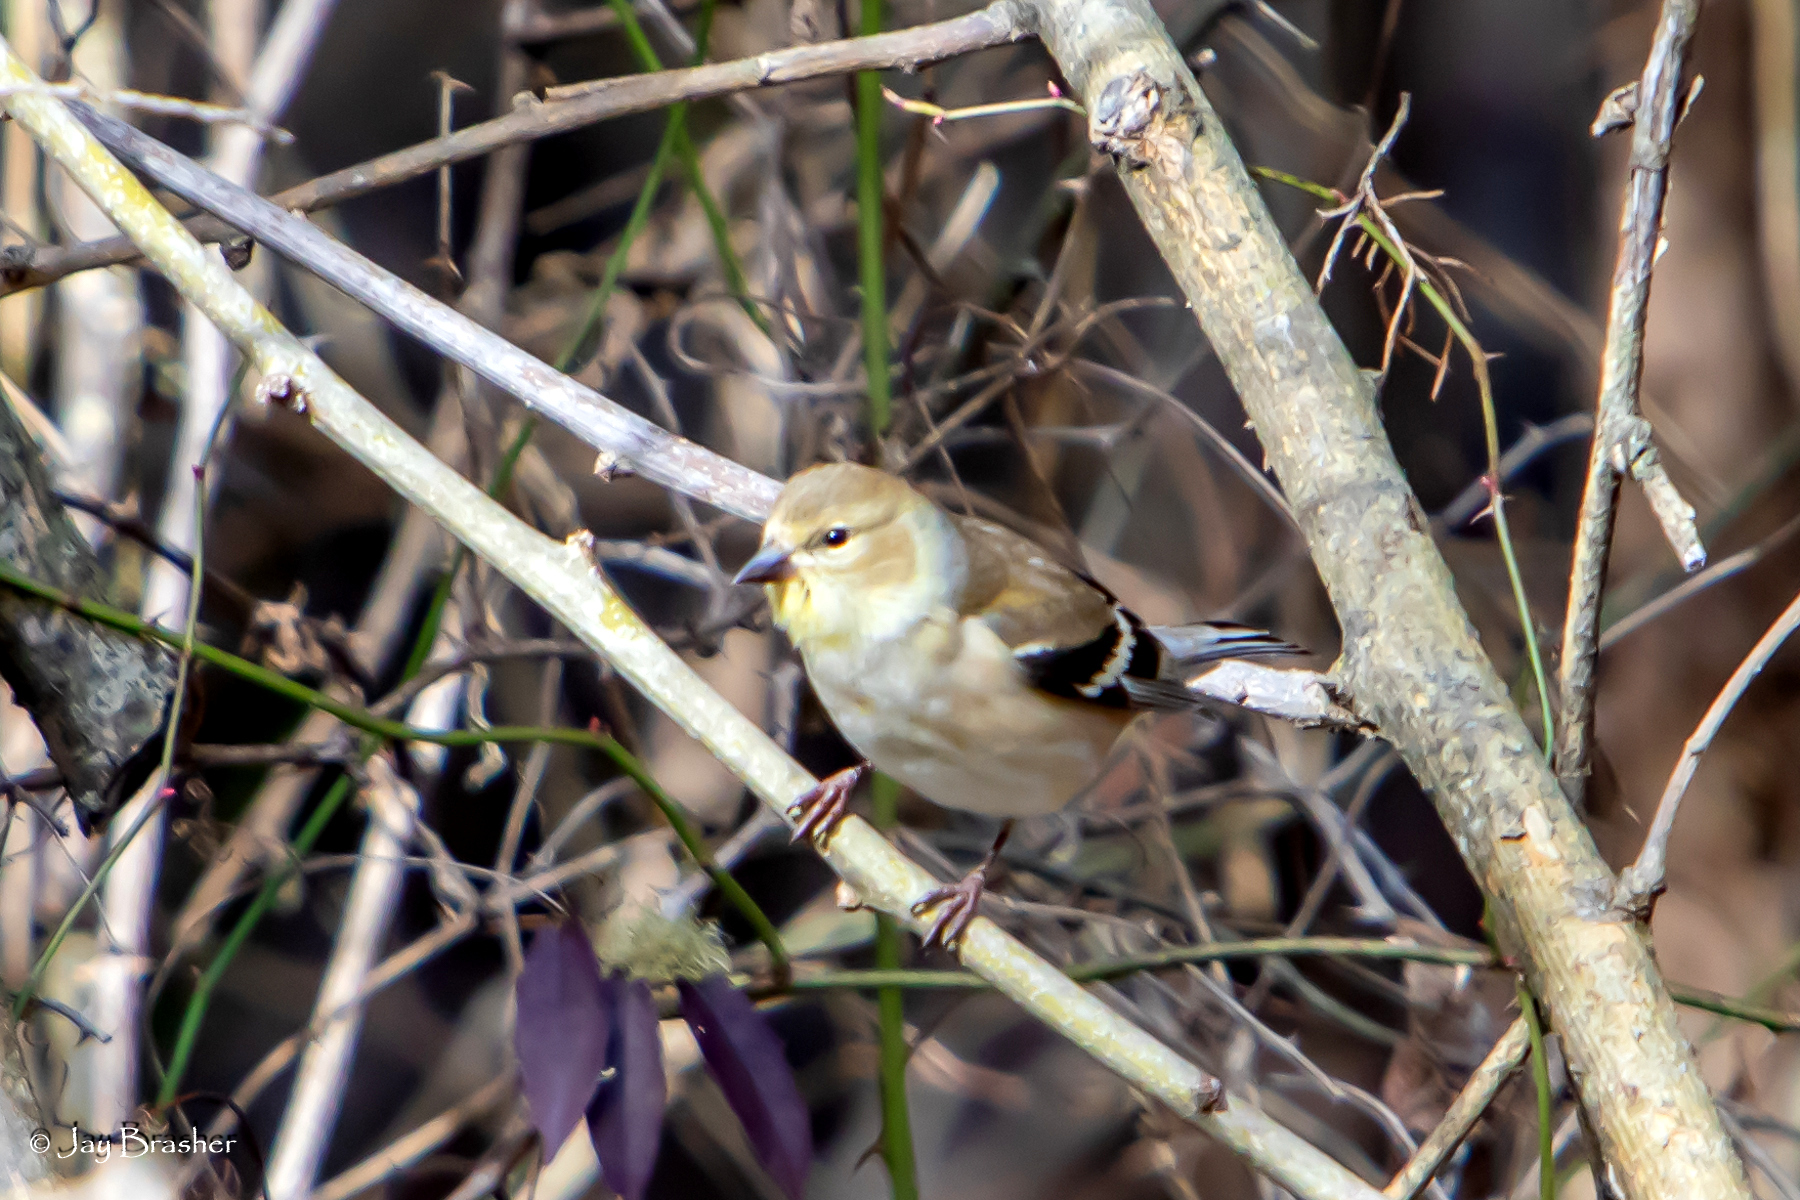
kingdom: Animalia
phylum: Chordata
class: Aves
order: Passeriformes
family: Fringillidae
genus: Spinus
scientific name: Spinus tristis
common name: American goldfinch
